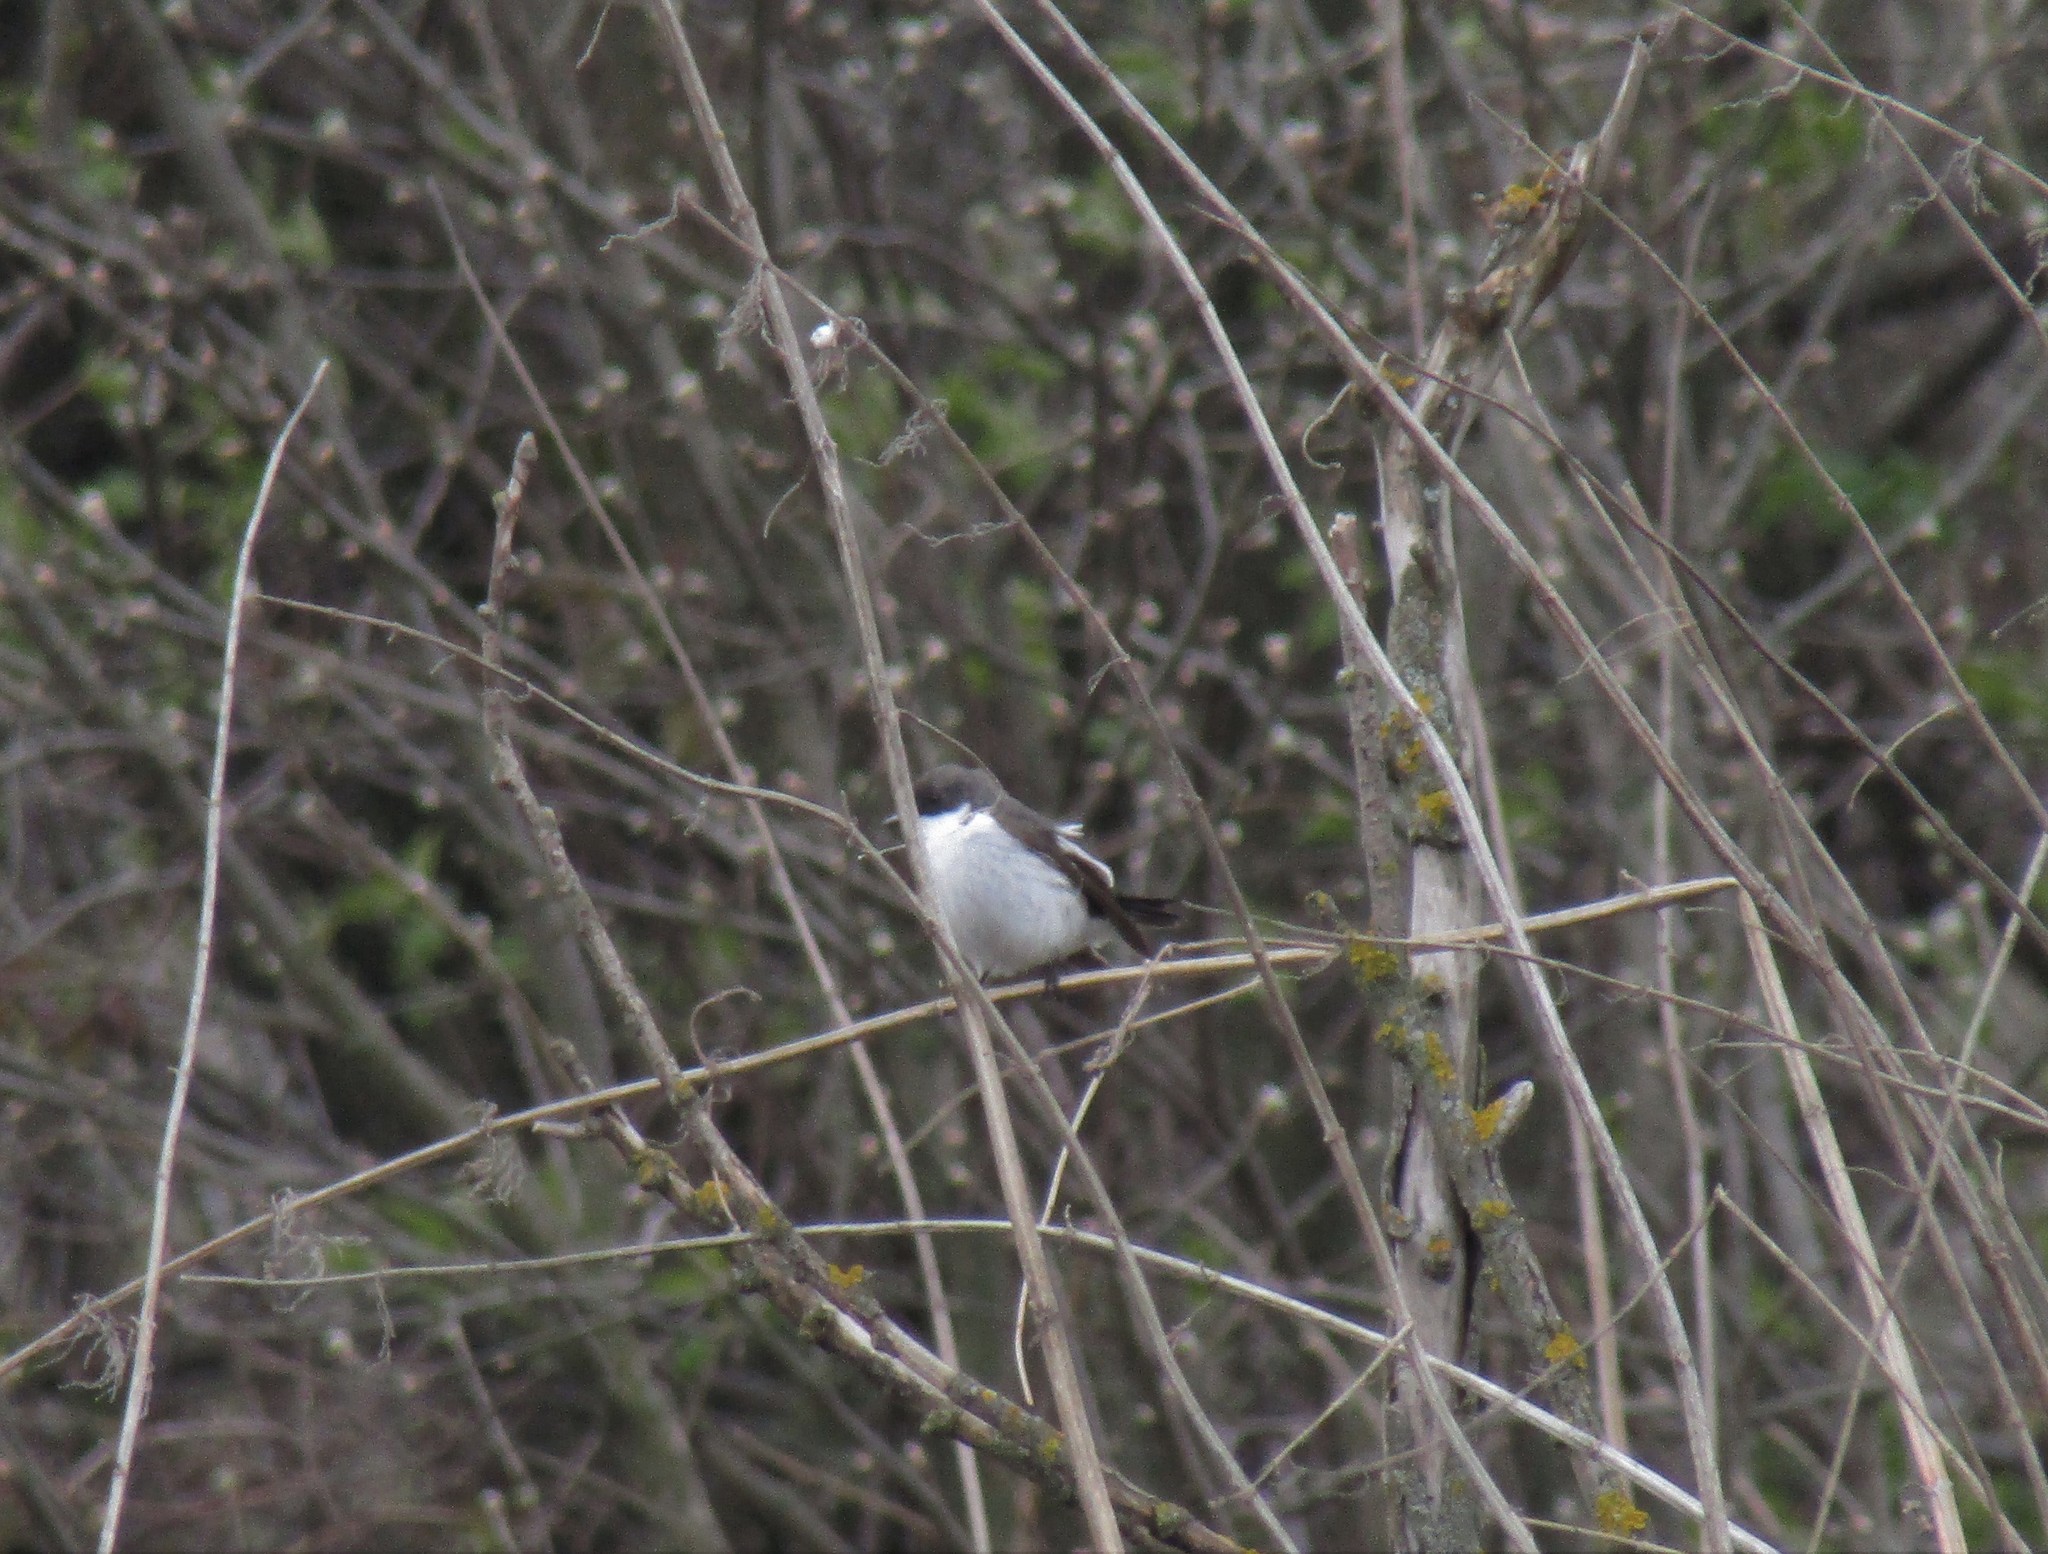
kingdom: Animalia
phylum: Chordata
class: Aves
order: Passeriformes
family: Muscicapidae
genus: Ficedula
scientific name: Ficedula hypoleuca
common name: European pied flycatcher
